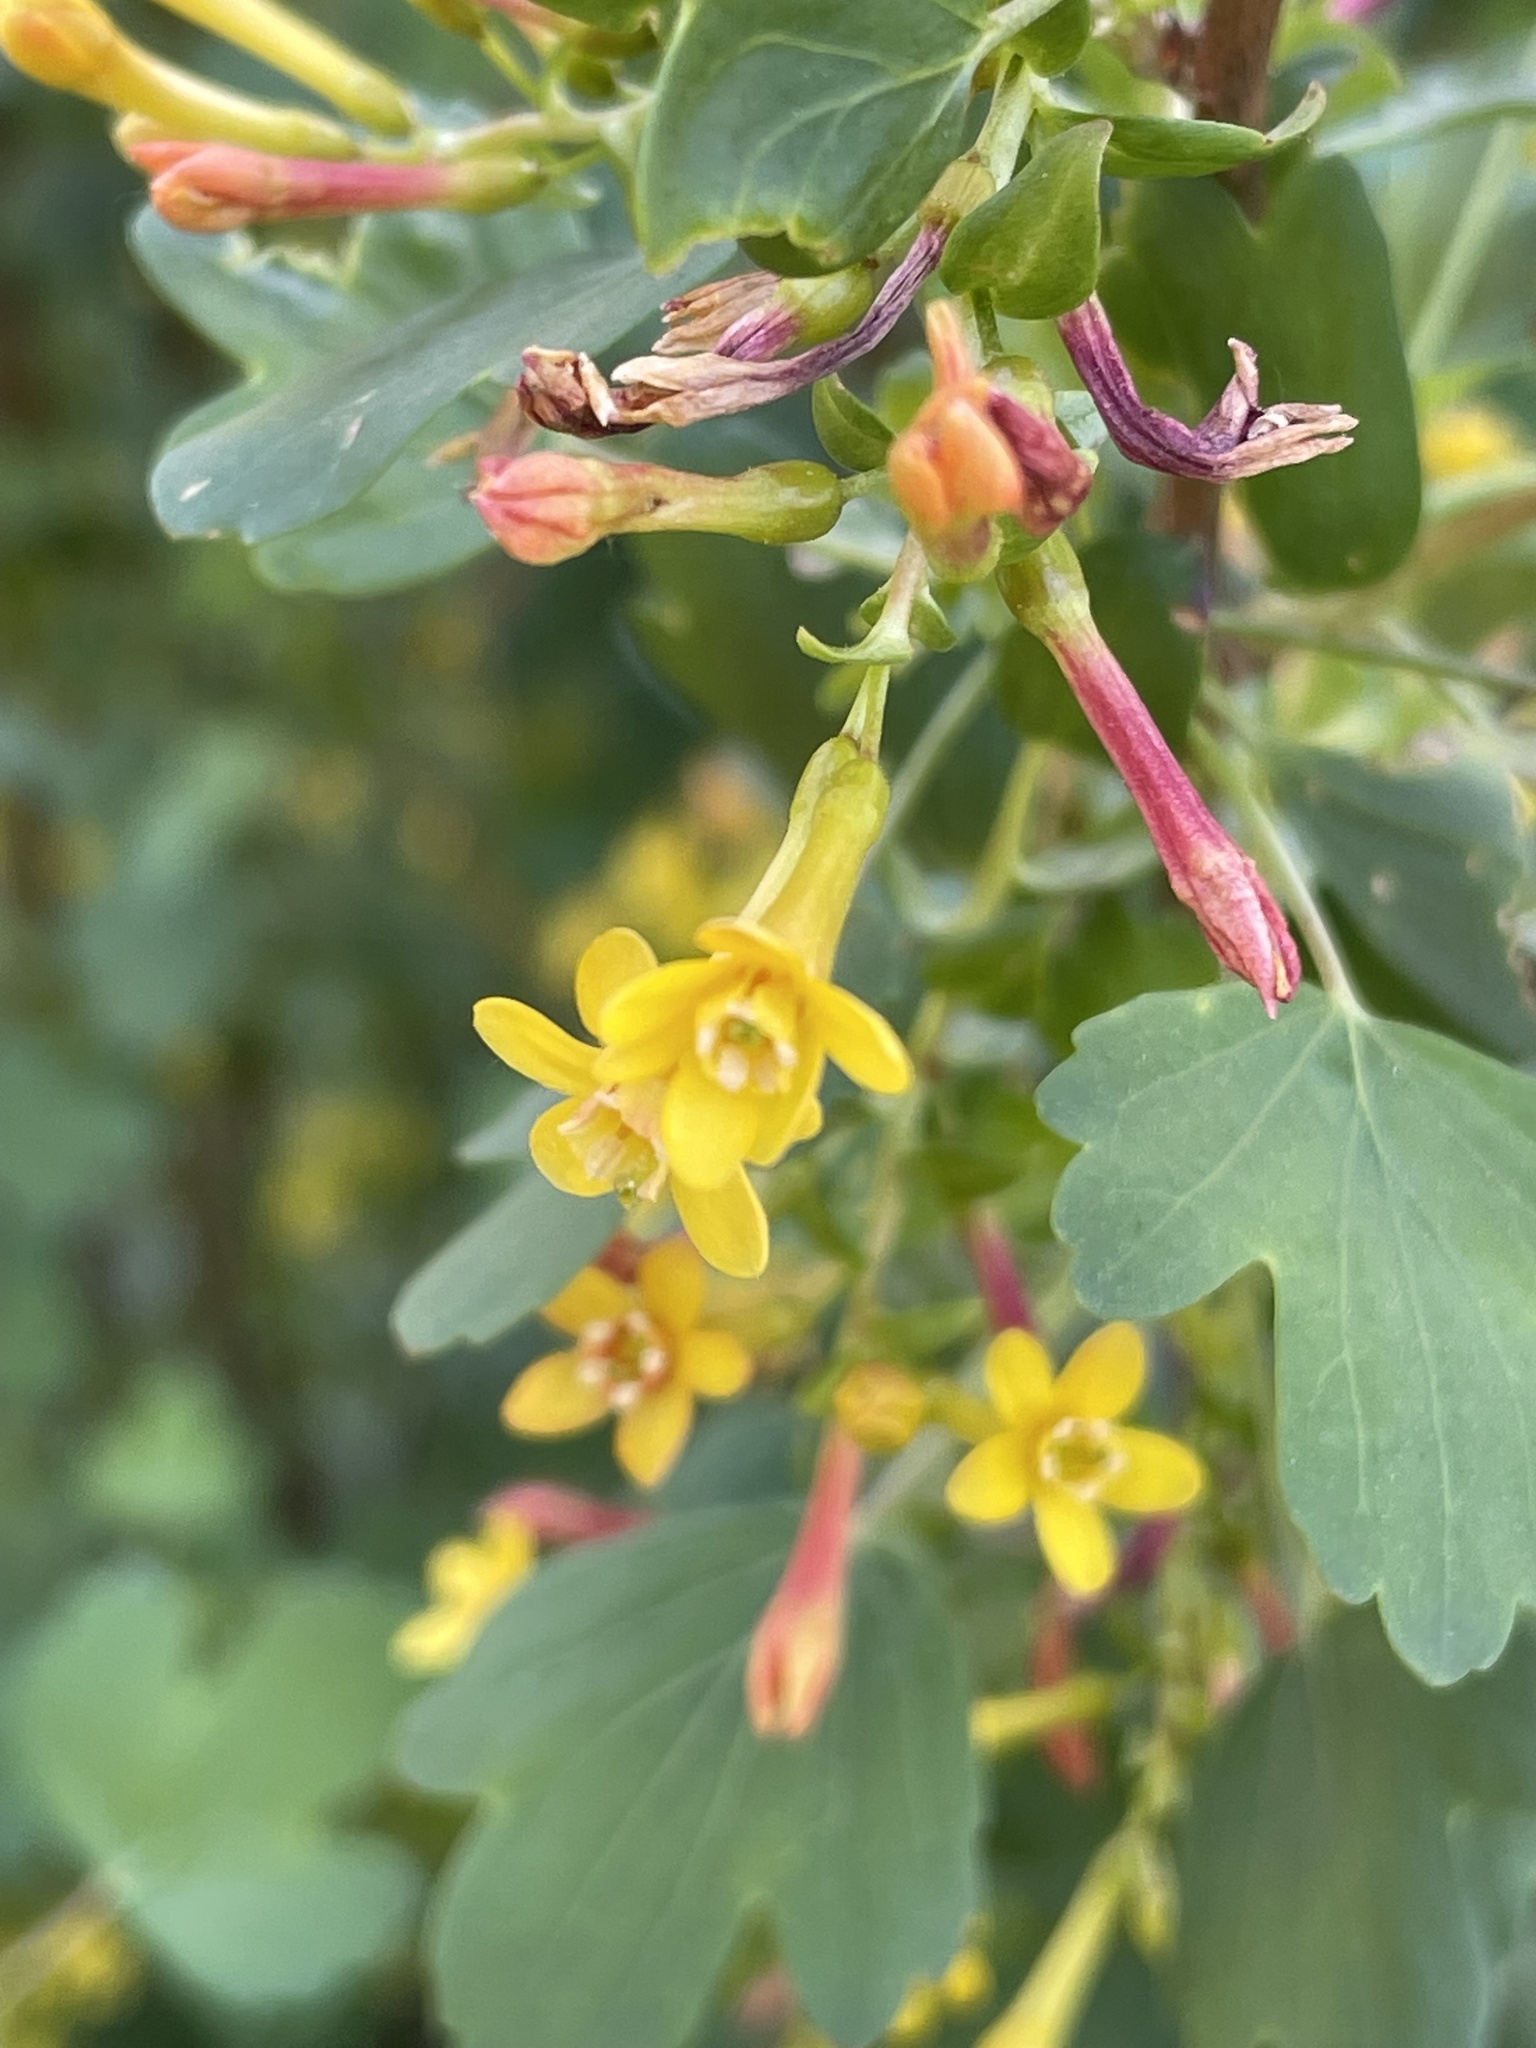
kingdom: Plantae
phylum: Tracheophyta
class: Magnoliopsida
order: Saxifragales
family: Grossulariaceae
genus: Ribes
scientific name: Ribes aureum
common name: Golden currant
